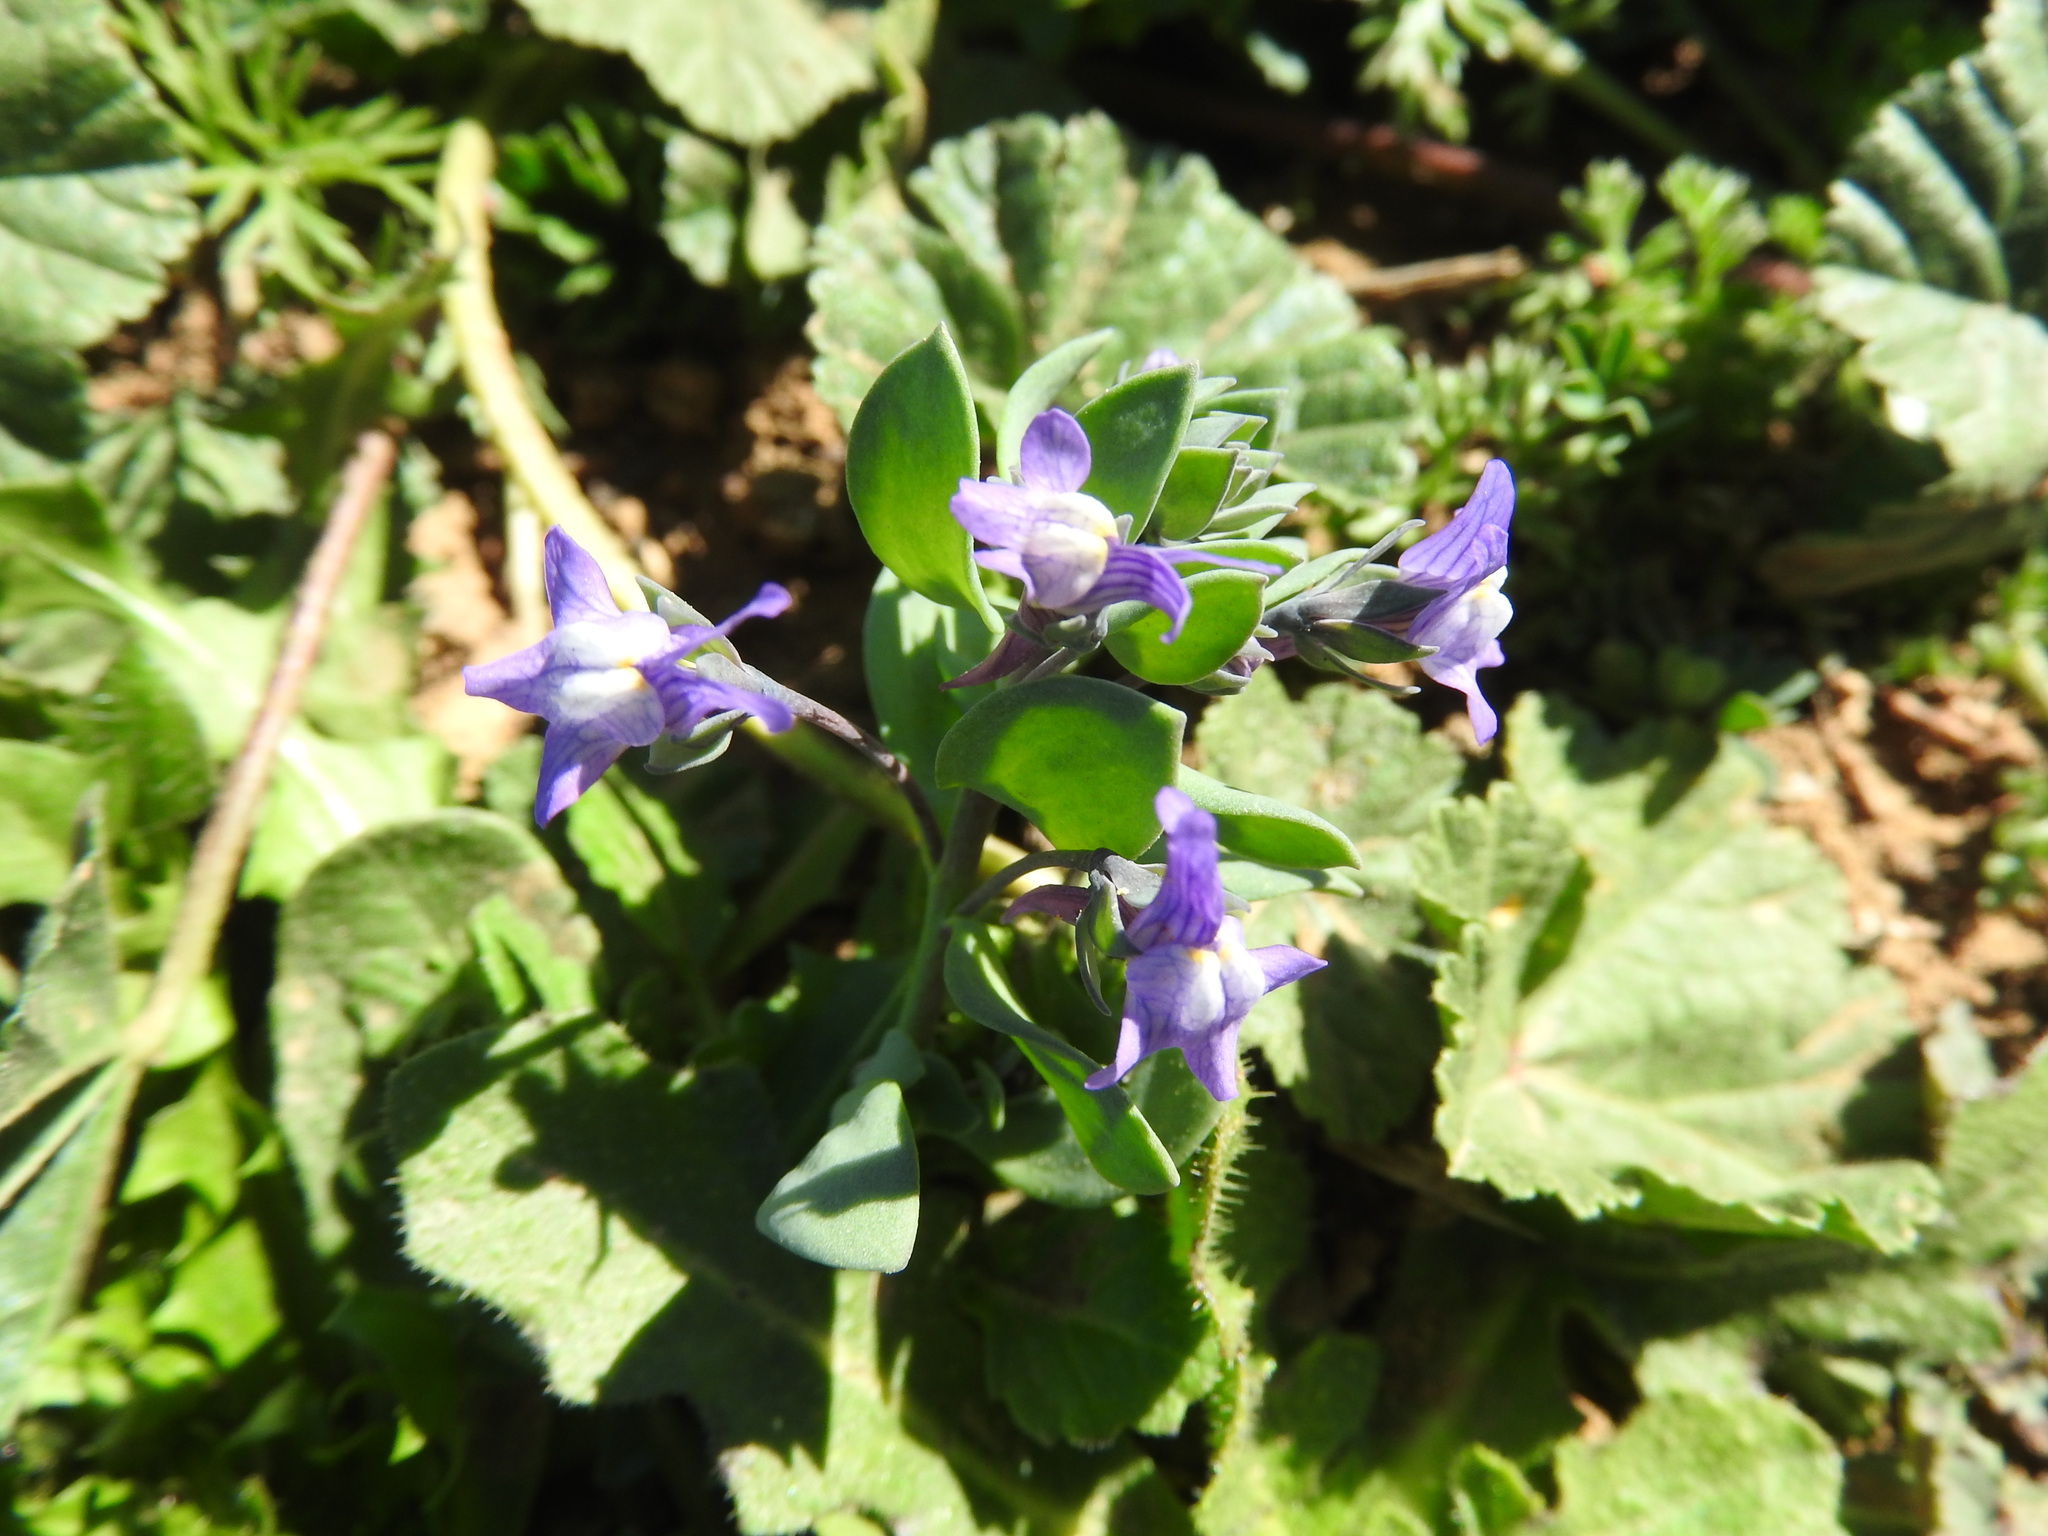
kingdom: Plantae
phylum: Tracheophyta
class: Magnoliopsida
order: Lamiales
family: Plantaginaceae
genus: Linaria
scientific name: Linaria reflexa
